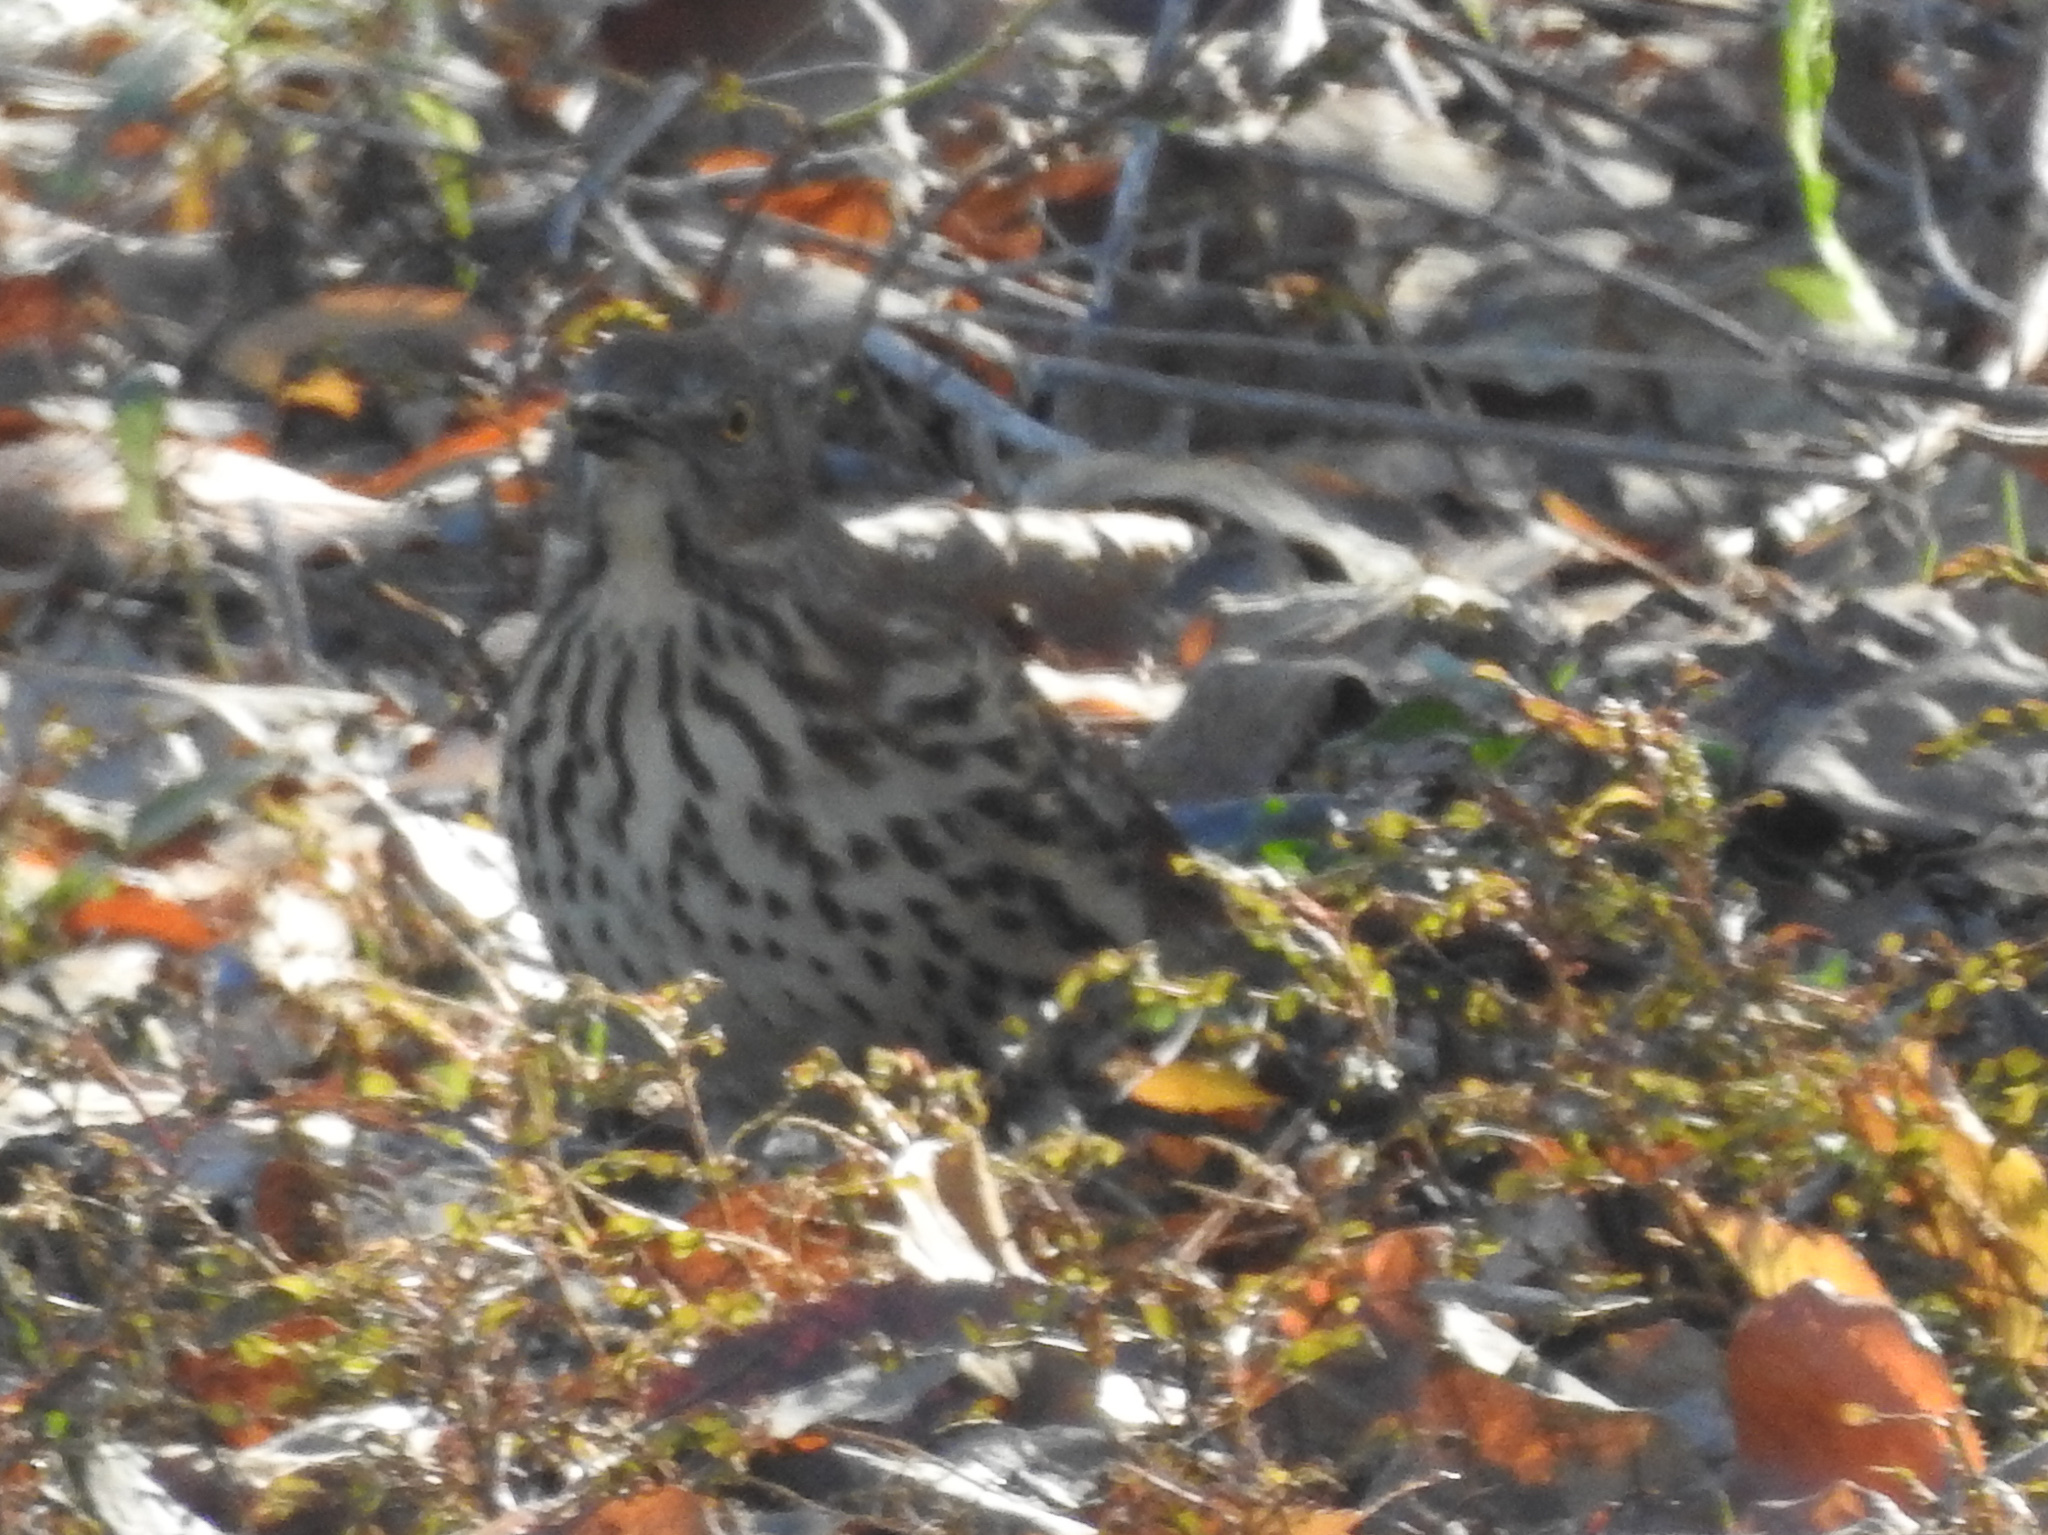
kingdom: Animalia
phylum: Chordata
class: Aves
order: Passeriformes
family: Mimidae
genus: Toxostoma
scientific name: Toxostoma rufum
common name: Brown thrasher
